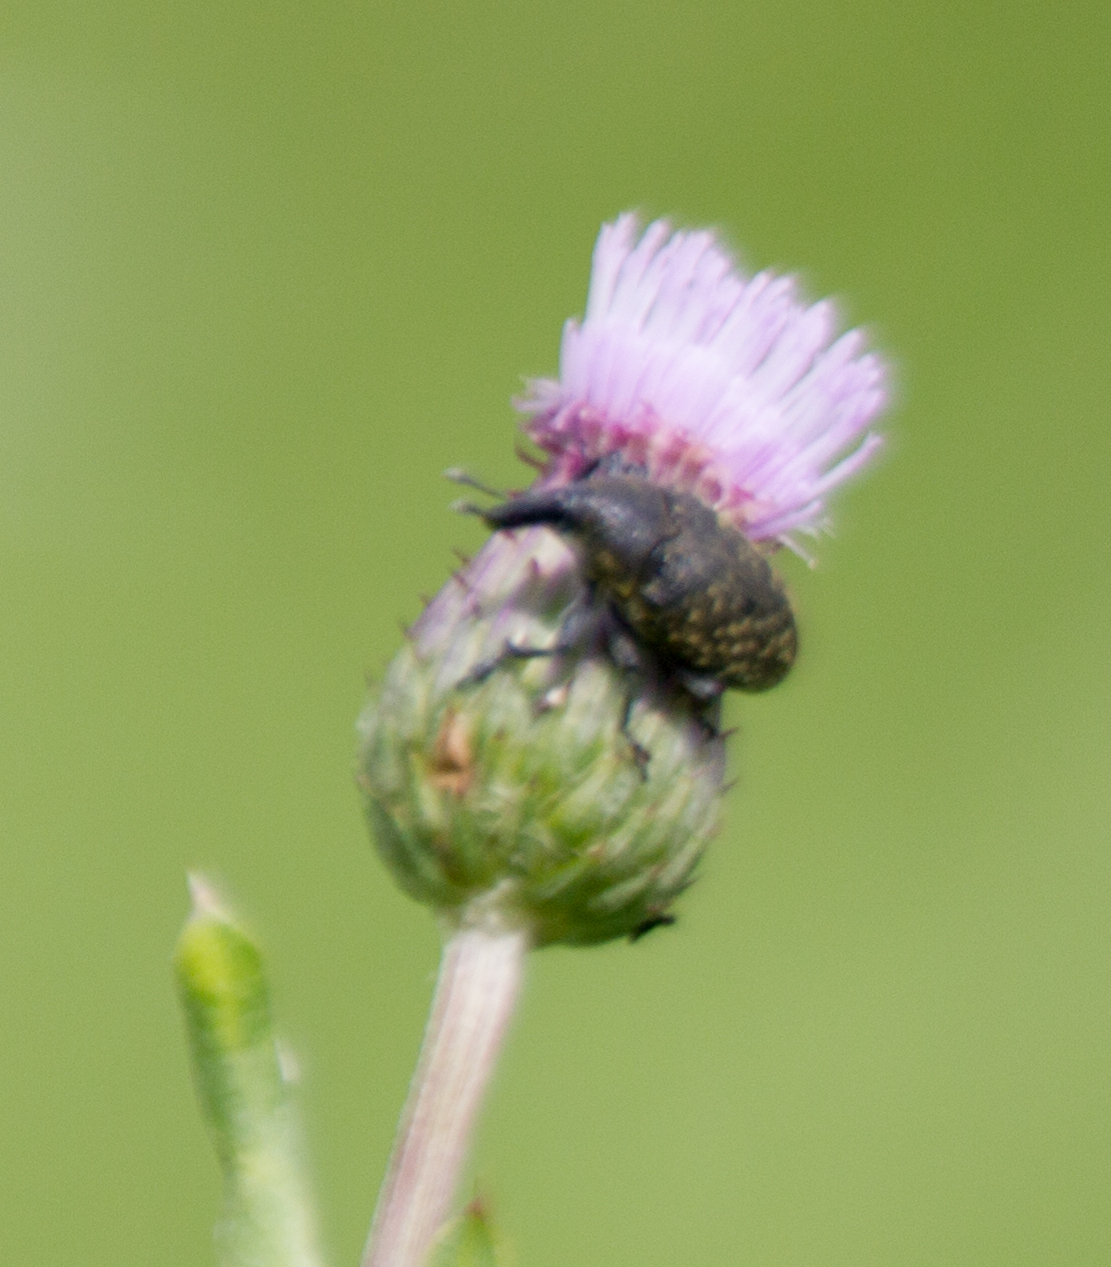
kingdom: Animalia
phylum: Arthropoda
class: Insecta
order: Coleoptera
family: Curculionidae
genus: Larinus
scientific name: Larinus turbinatus
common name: Weevil
